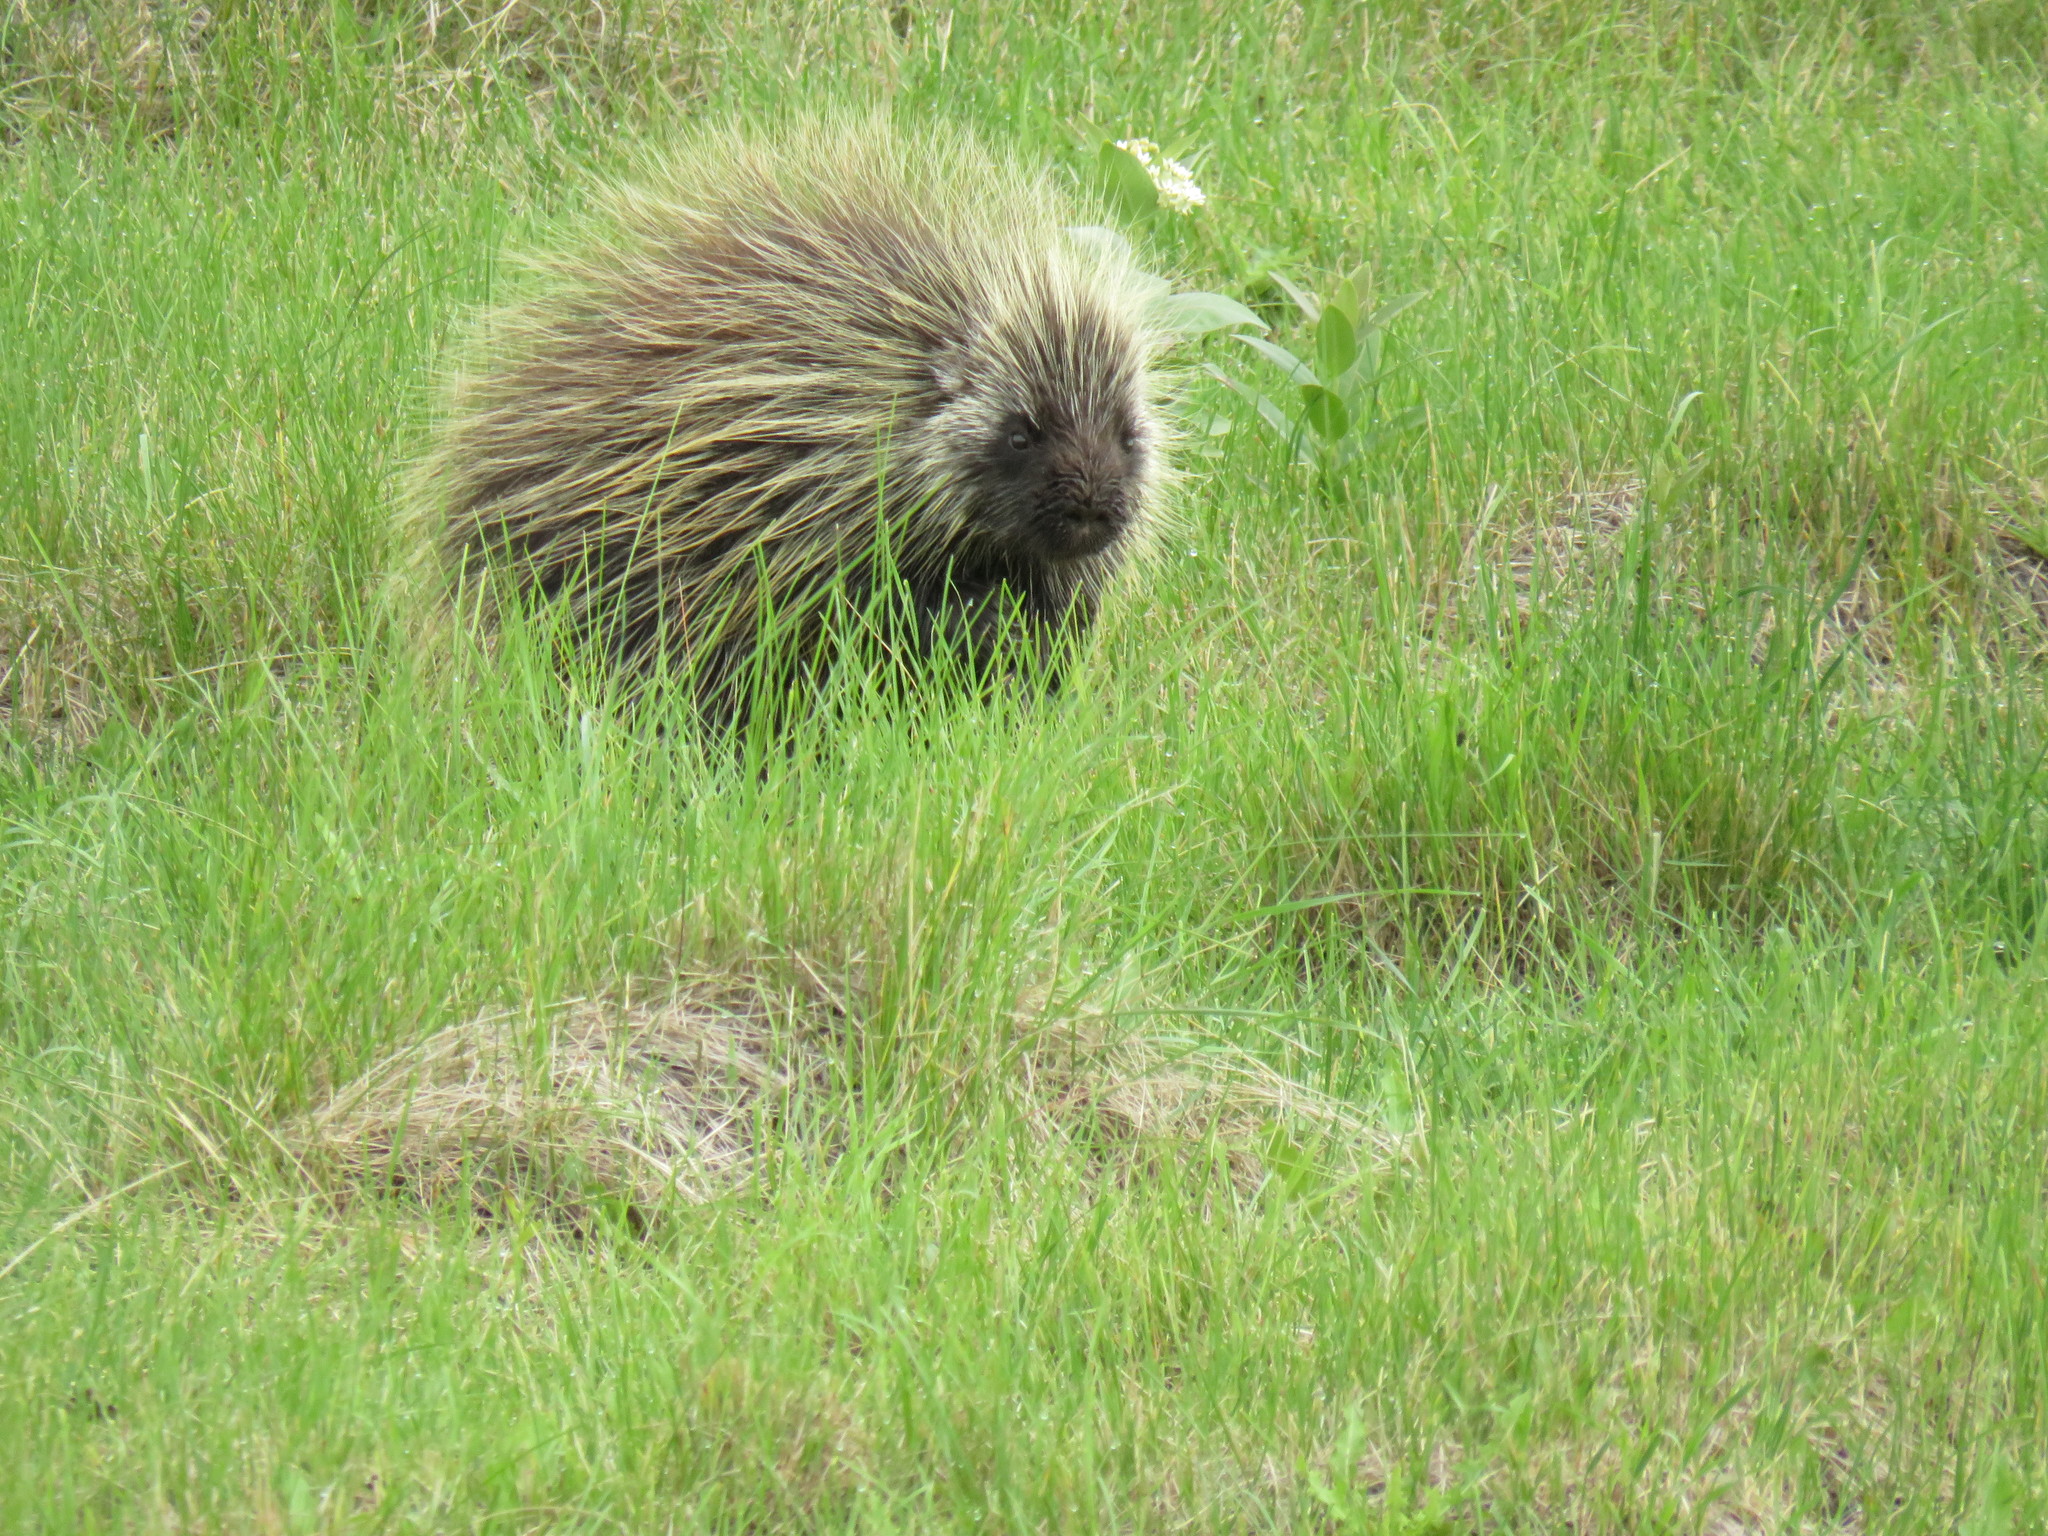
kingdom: Animalia
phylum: Chordata
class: Mammalia
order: Rodentia
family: Erethizontidae
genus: Erethizon
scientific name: Erethizon dorsatus
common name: North american porcupine
